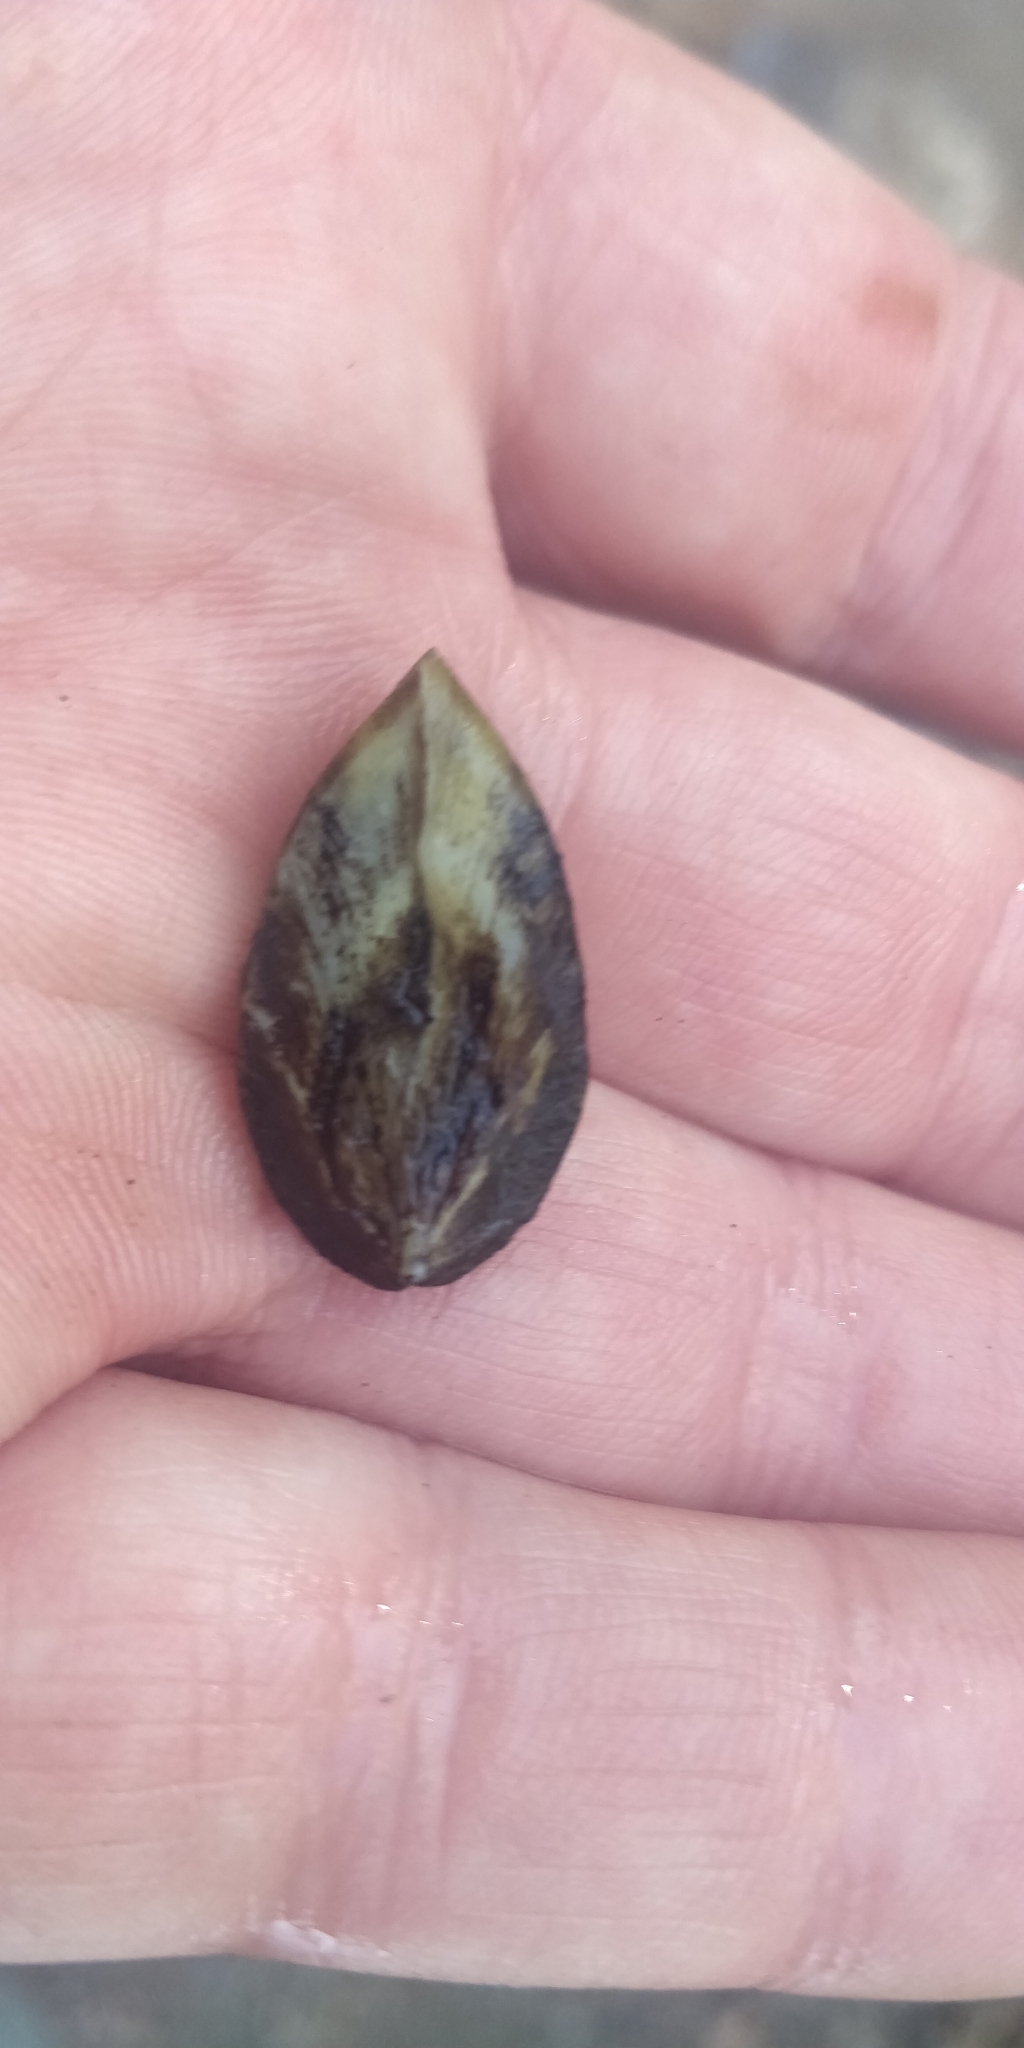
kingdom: Animalia
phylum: Mollusca
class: Bivalvia
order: Myida
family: Dreissenidae
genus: Dreissena
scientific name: Dreissena polymorpha
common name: Zebra mussel
